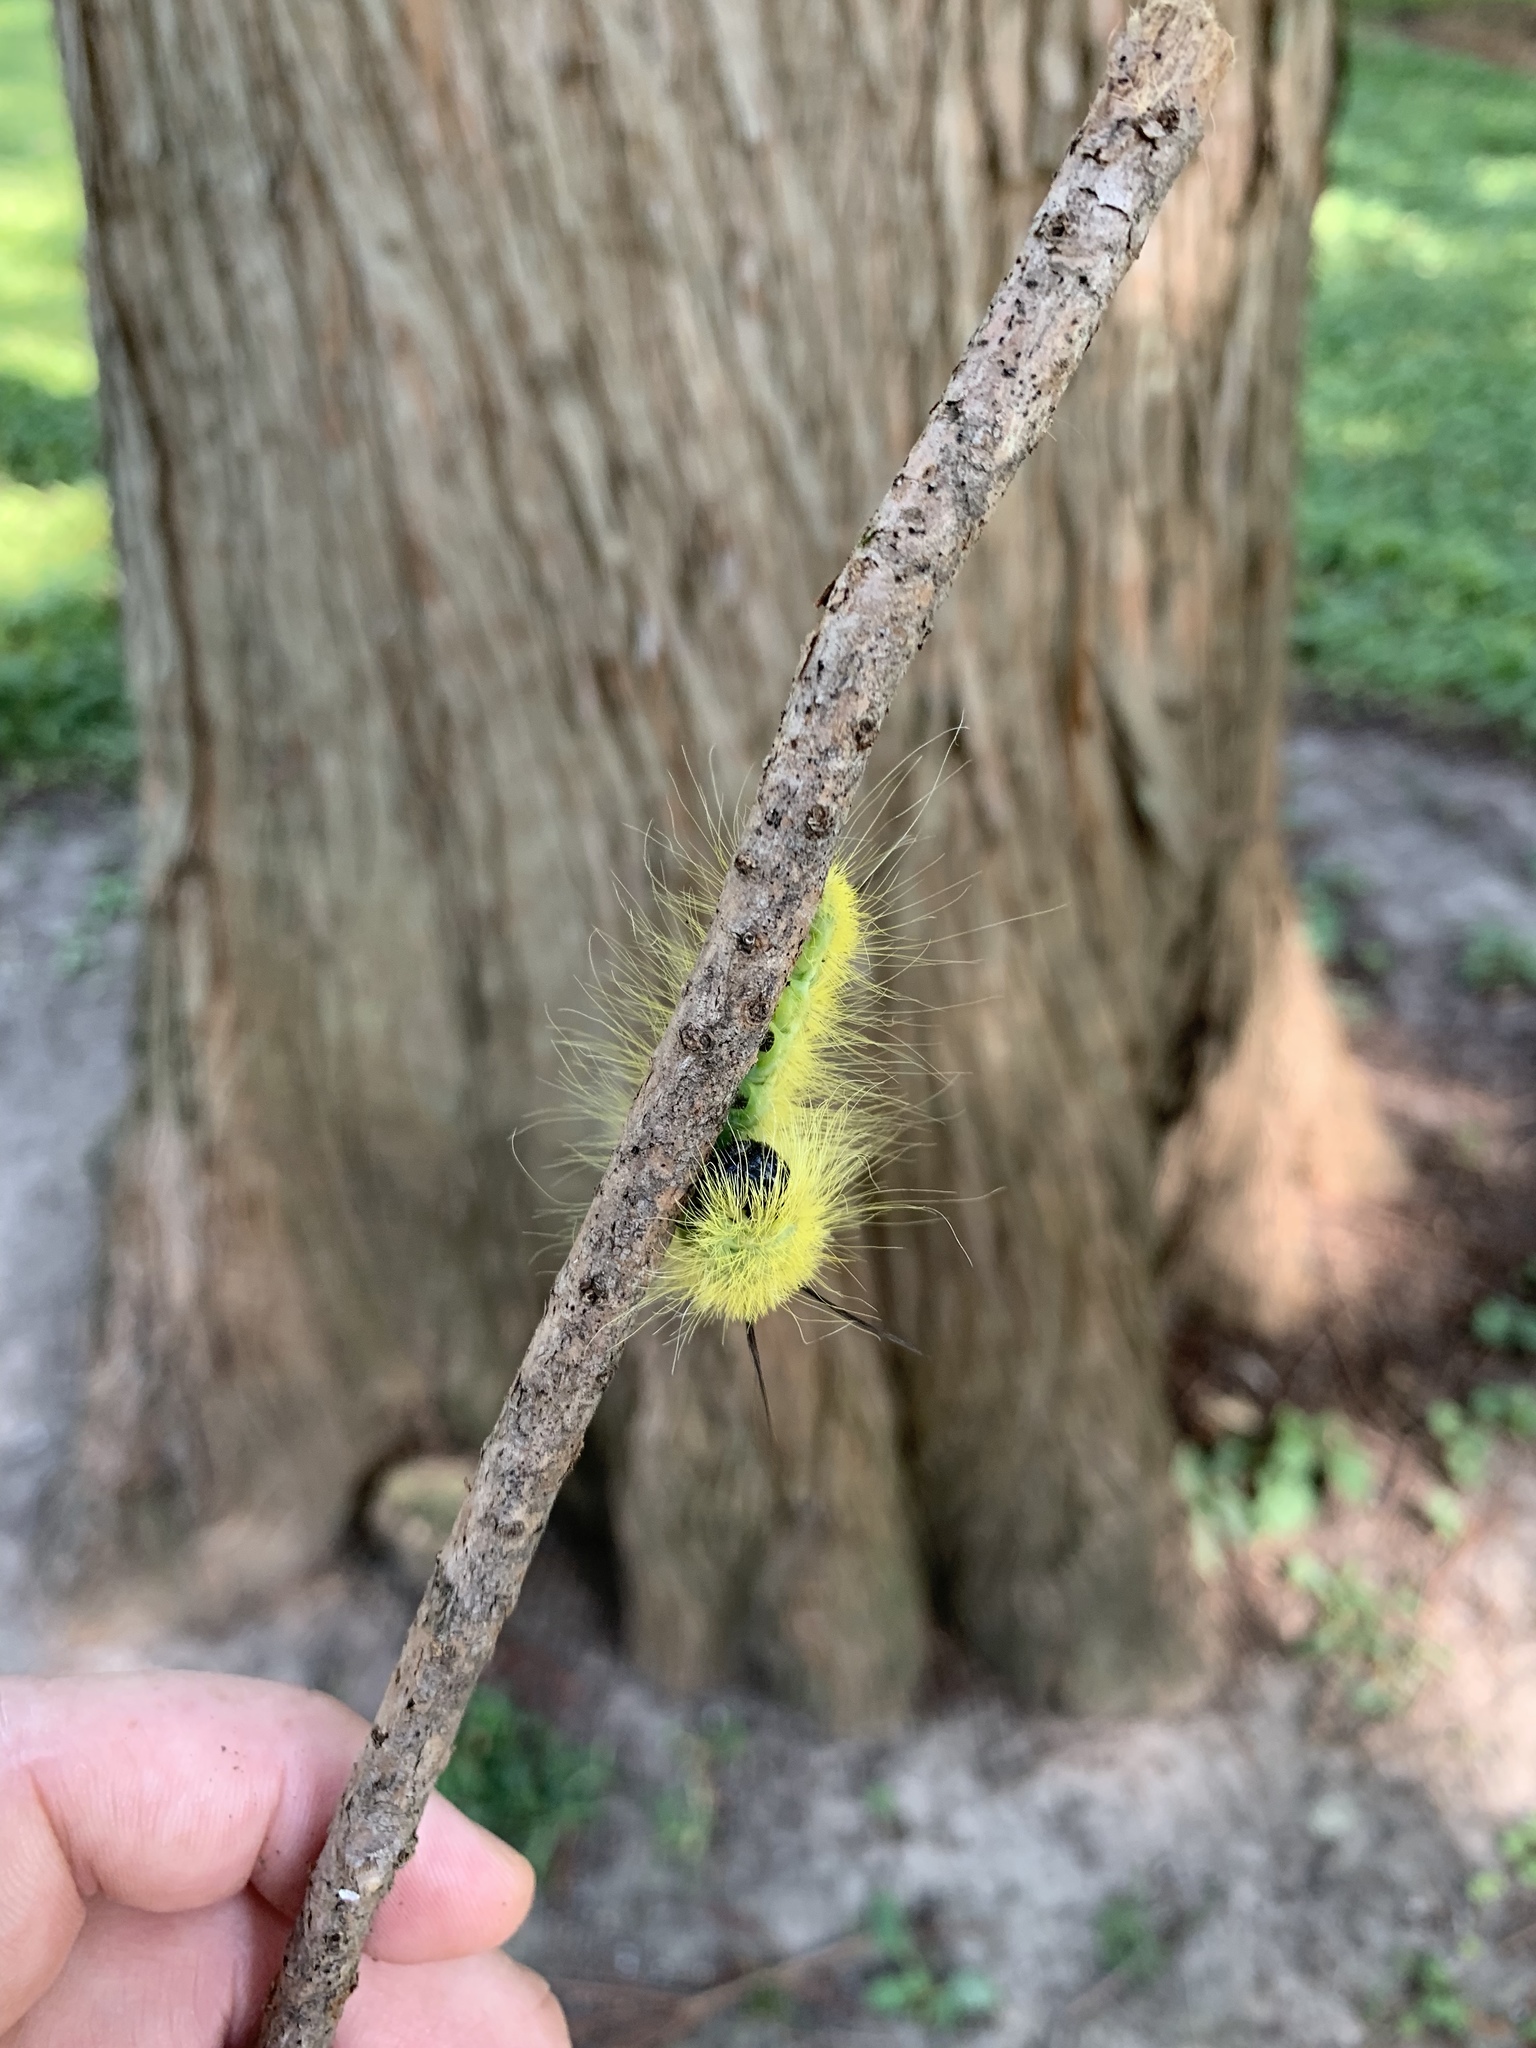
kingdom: Animalia
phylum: Arthropoda
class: Insecta
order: Lepidoptera
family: Noctuidae
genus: Acronicta
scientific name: Acronicta americana
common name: American dagger
